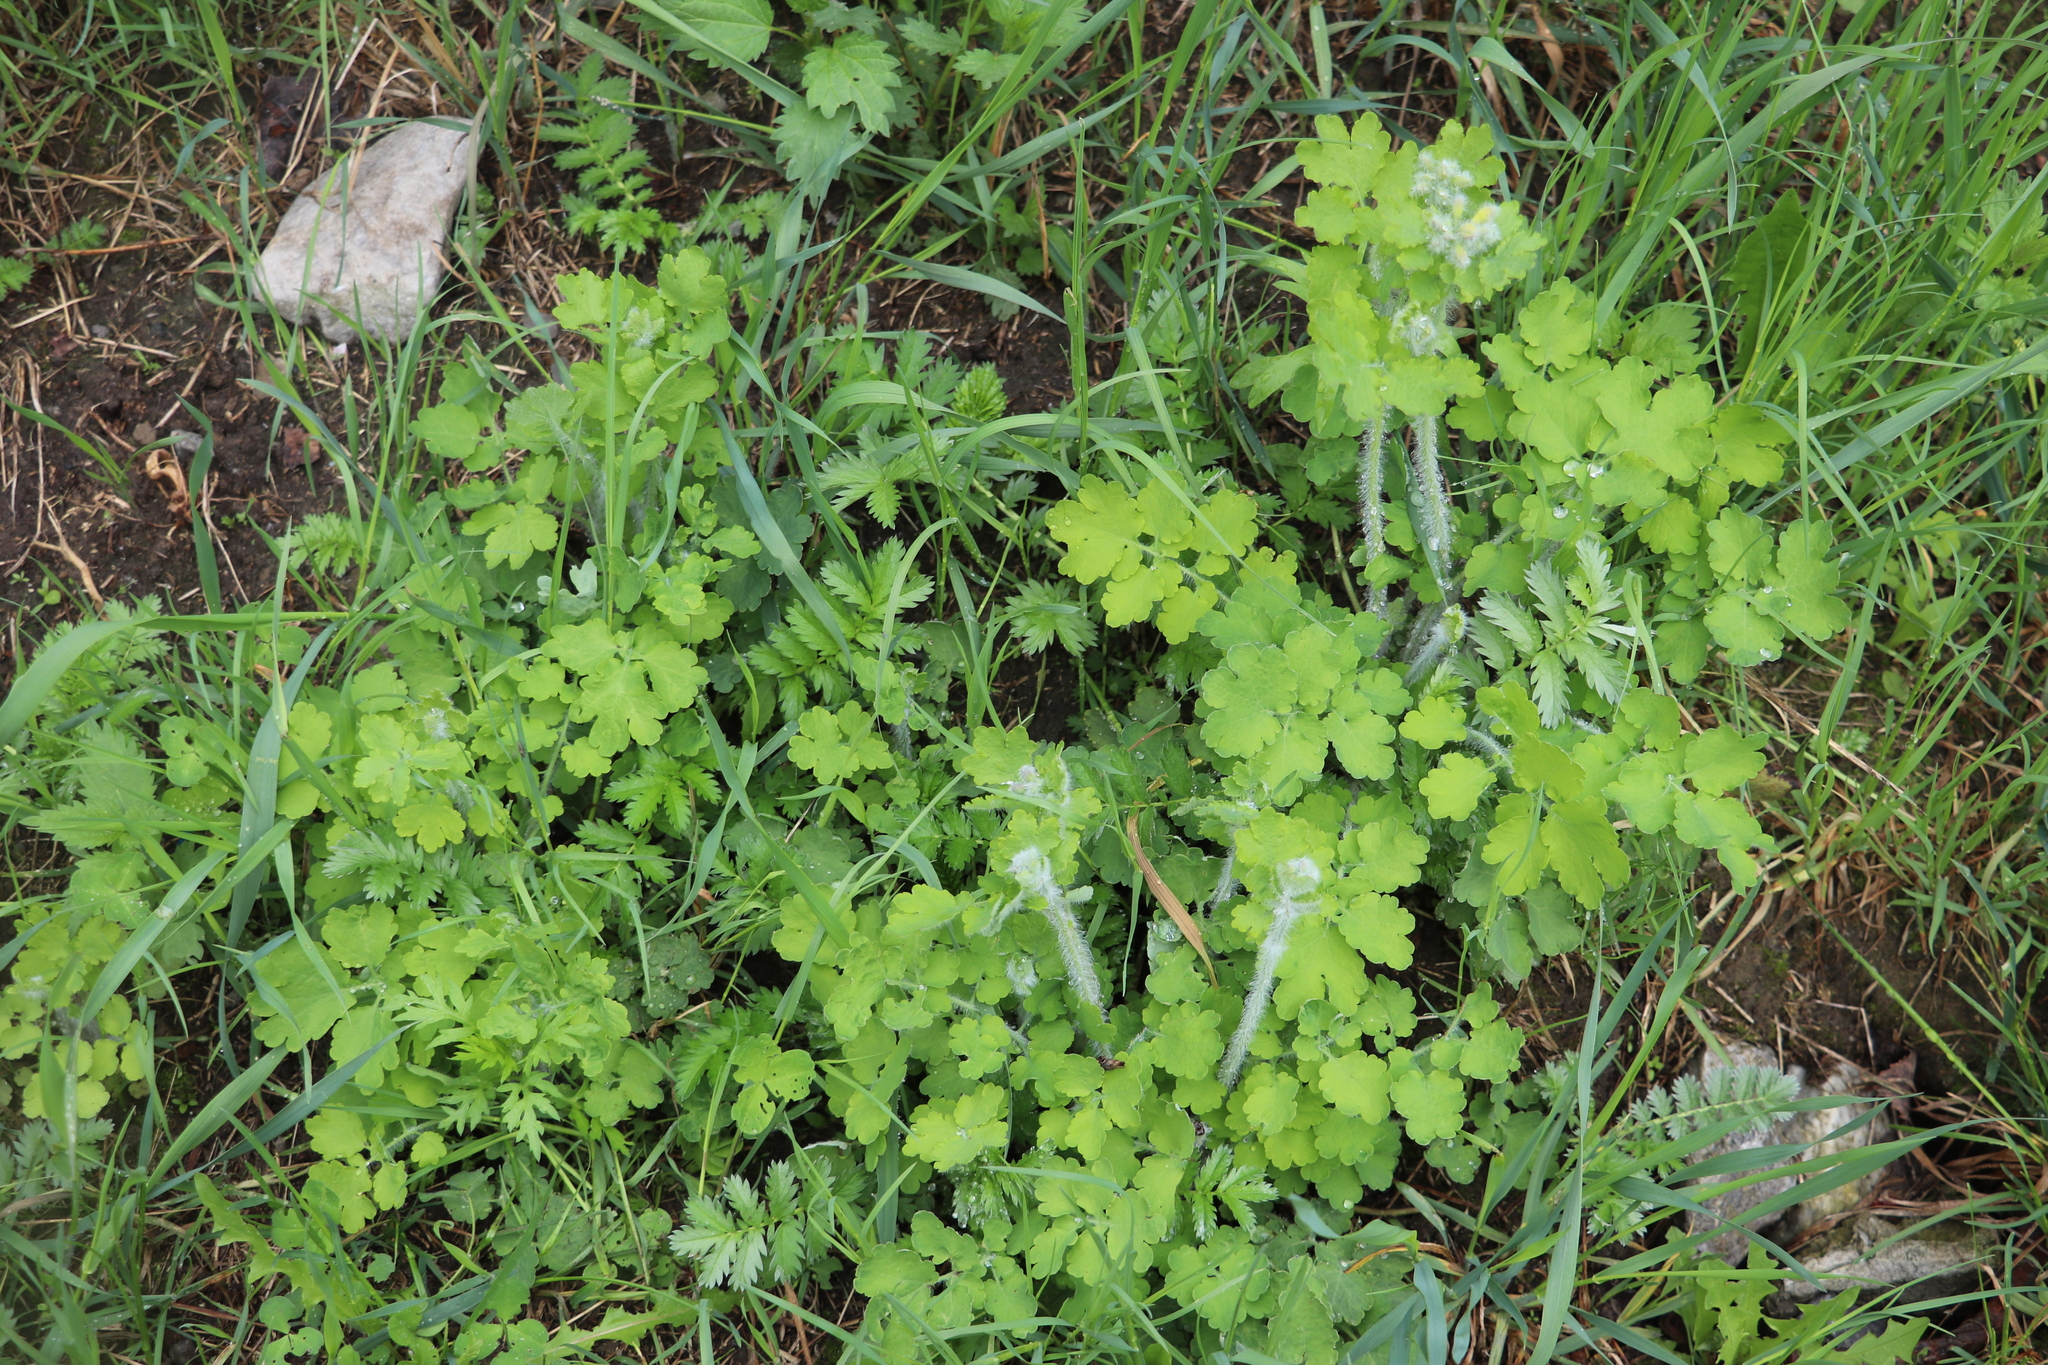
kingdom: Plantae
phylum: Tracheophyta
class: Magnoliopsida
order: Ranunculales
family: Papaveraceae
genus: Chelidonium
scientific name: Chelidonium majus
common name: Greater celandine
